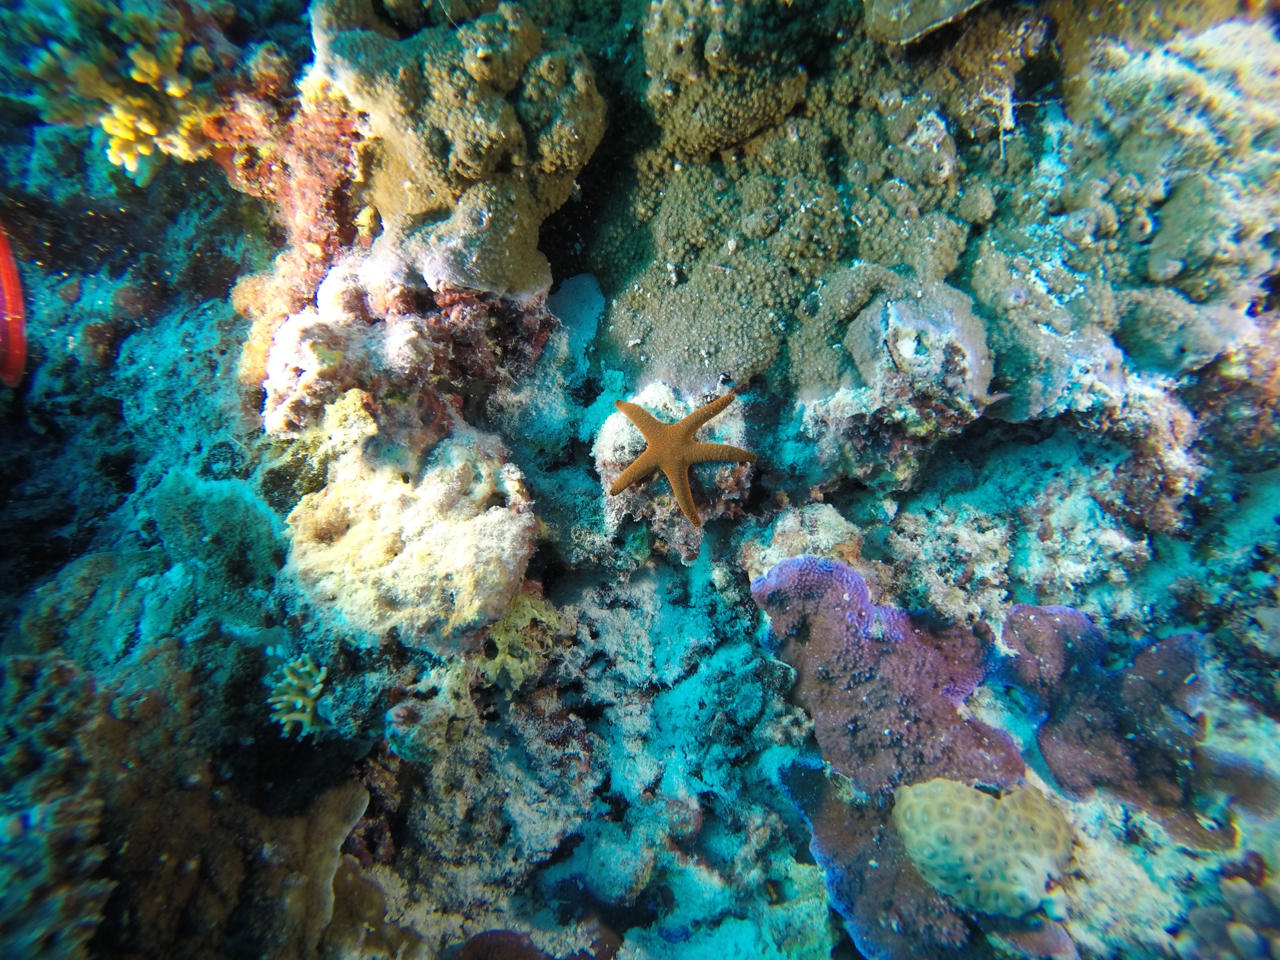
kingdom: Animalia
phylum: Echinodermata
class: Asteroidea
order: Valvatida
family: Goniasteridae
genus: Fromia
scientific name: Fromia indica
